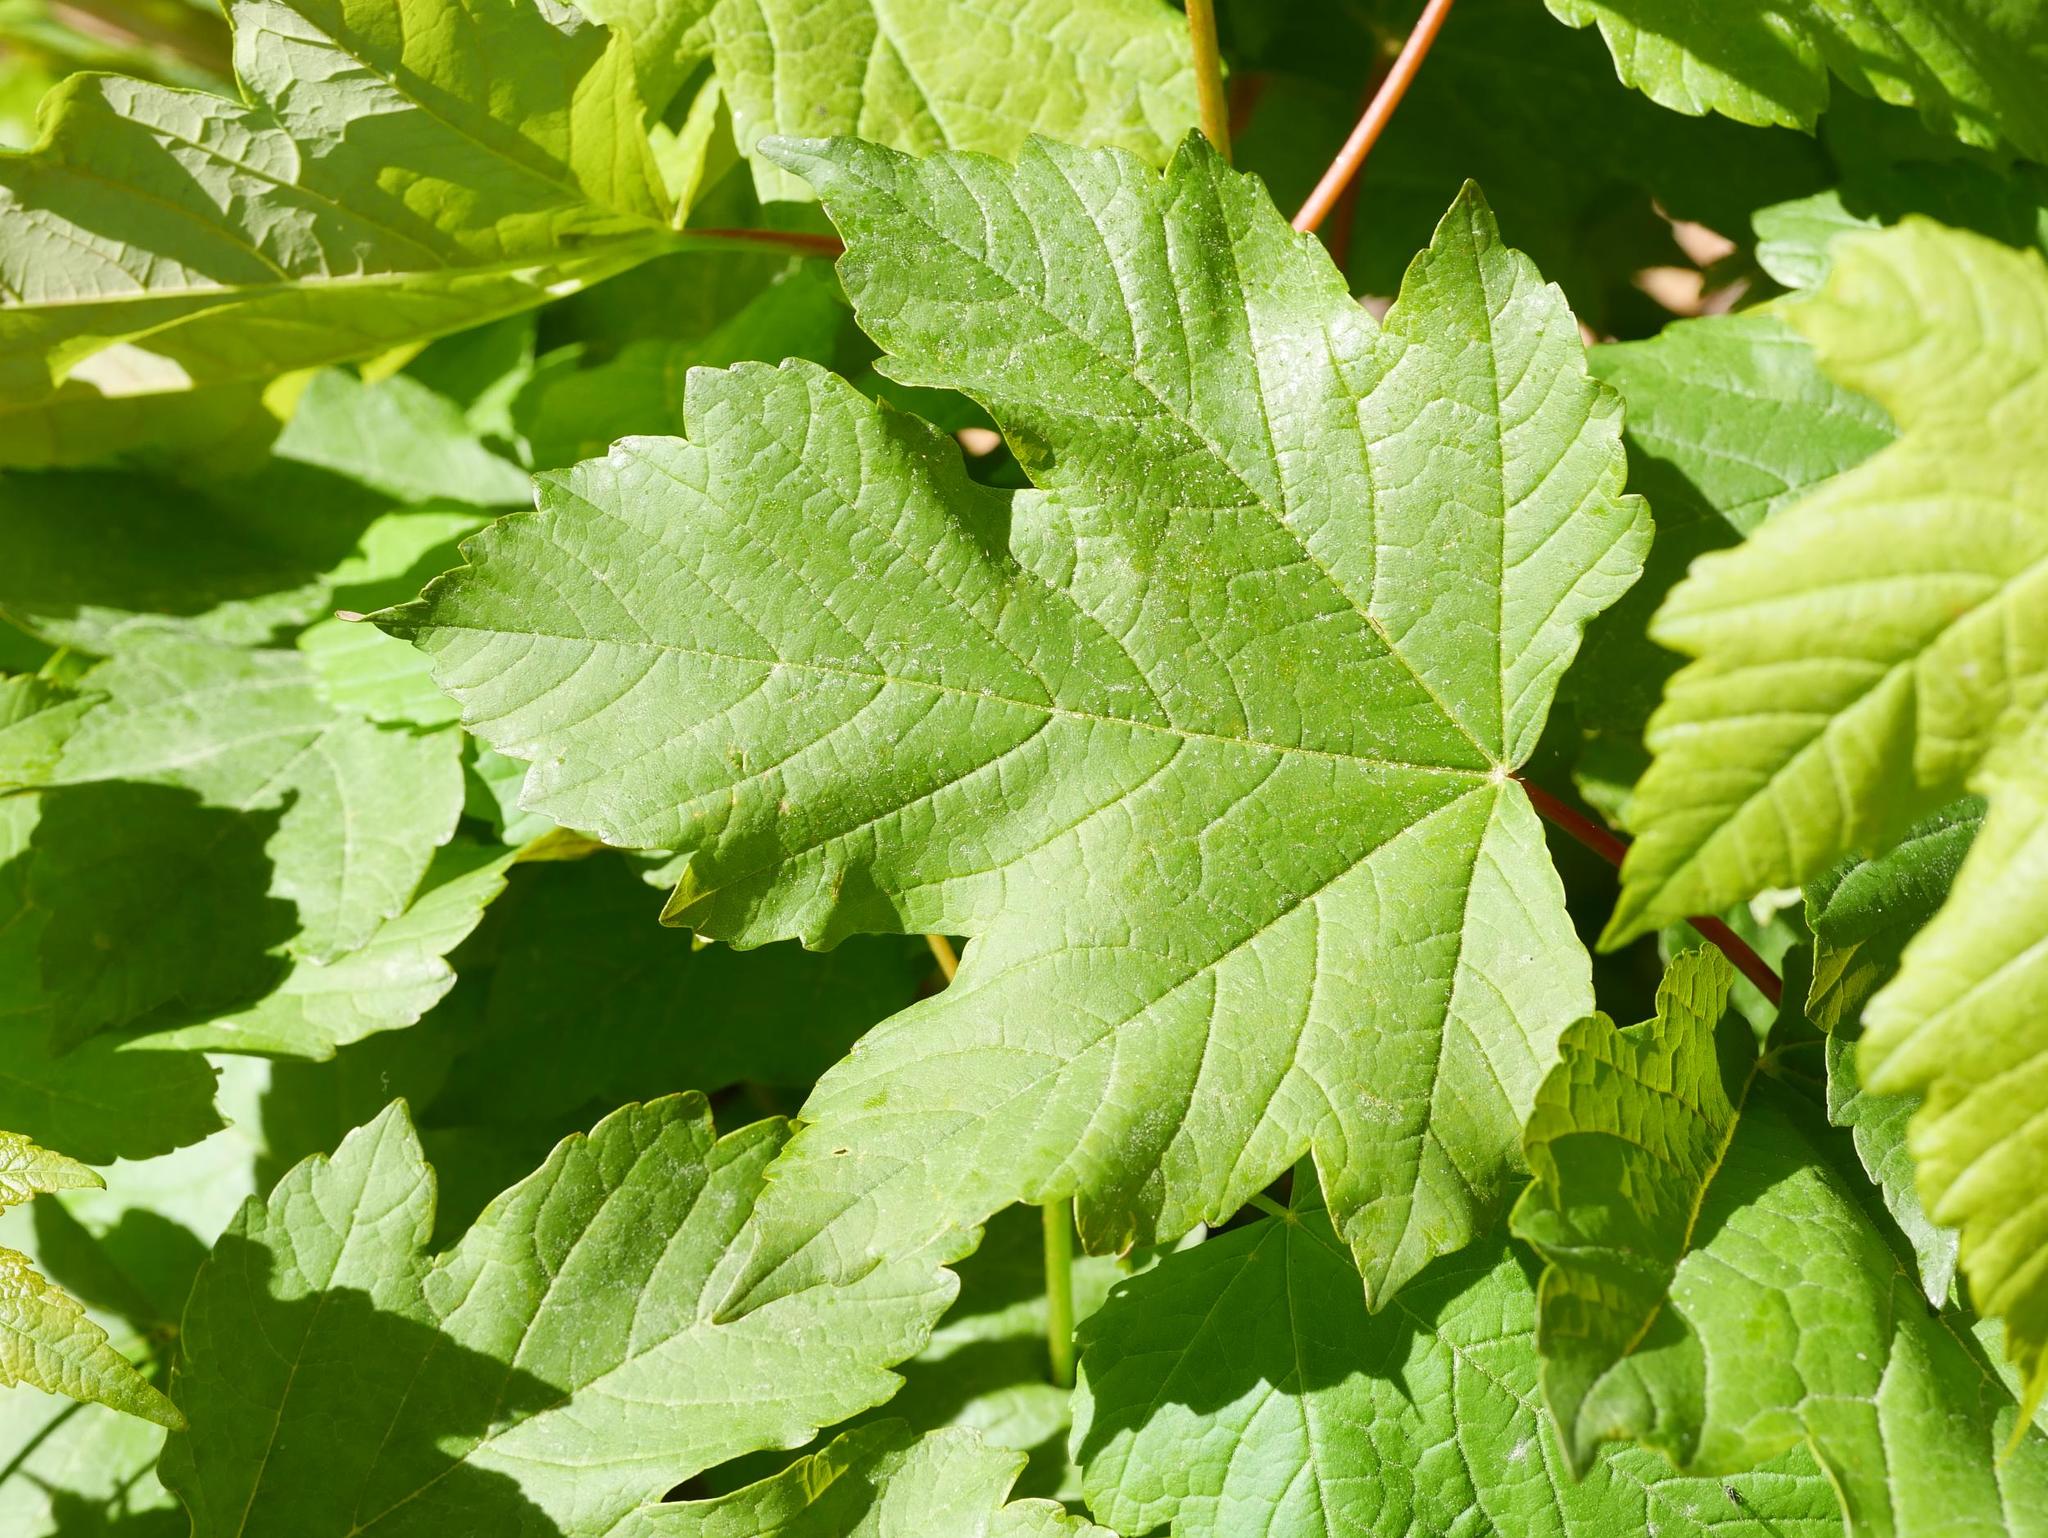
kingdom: Plantae
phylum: Tracheophyta
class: Magnoliopsida
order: Sapindales
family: Sapindaceae
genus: Acer
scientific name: Acer pseudoplatanus
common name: Sycamore
